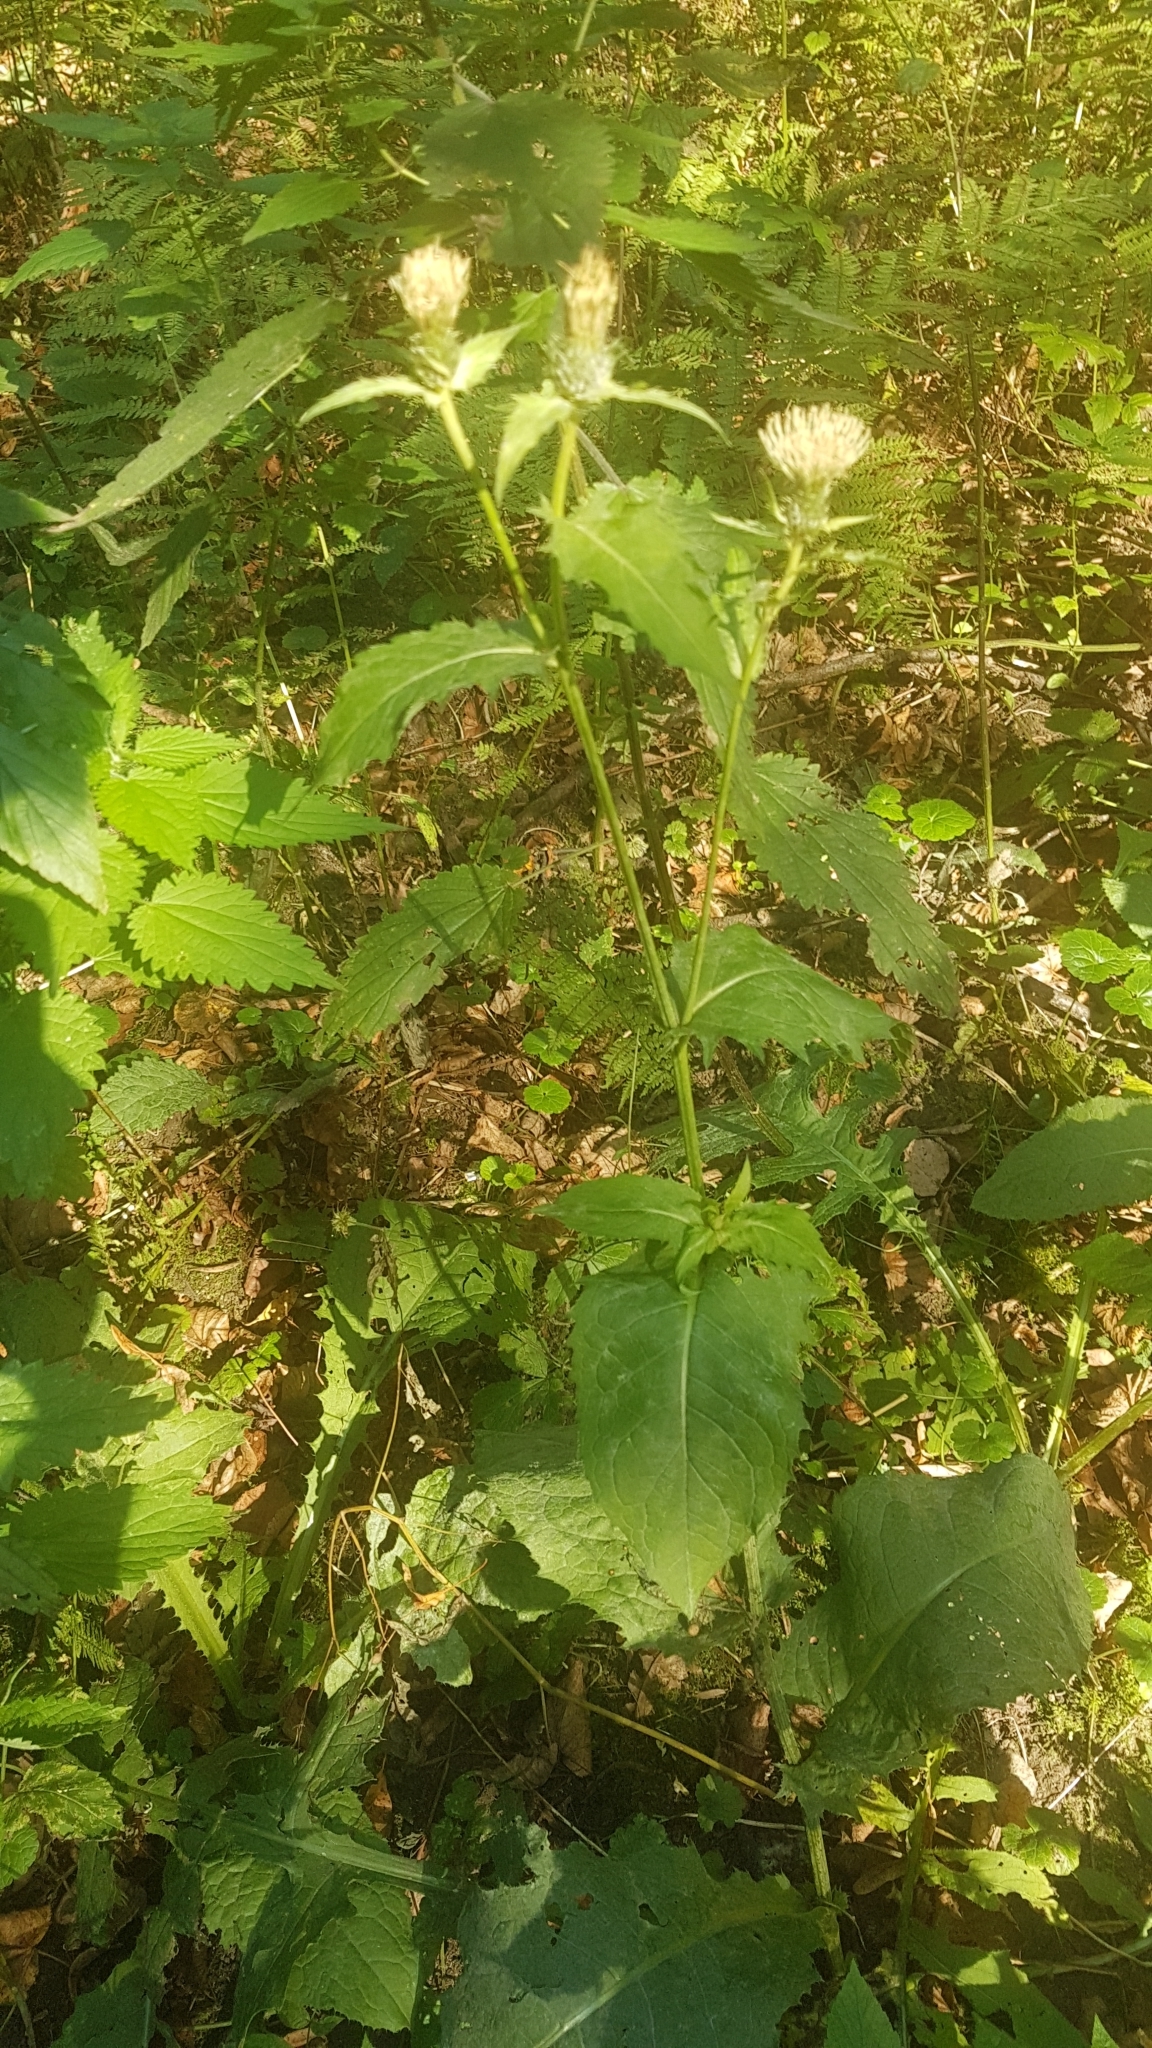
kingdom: Plantae
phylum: Tracheophyta
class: Magnoliopsida
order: Asterales
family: Asteraceae
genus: Cirsium
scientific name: Cirsium oleraceum
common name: Cabbage thistle
